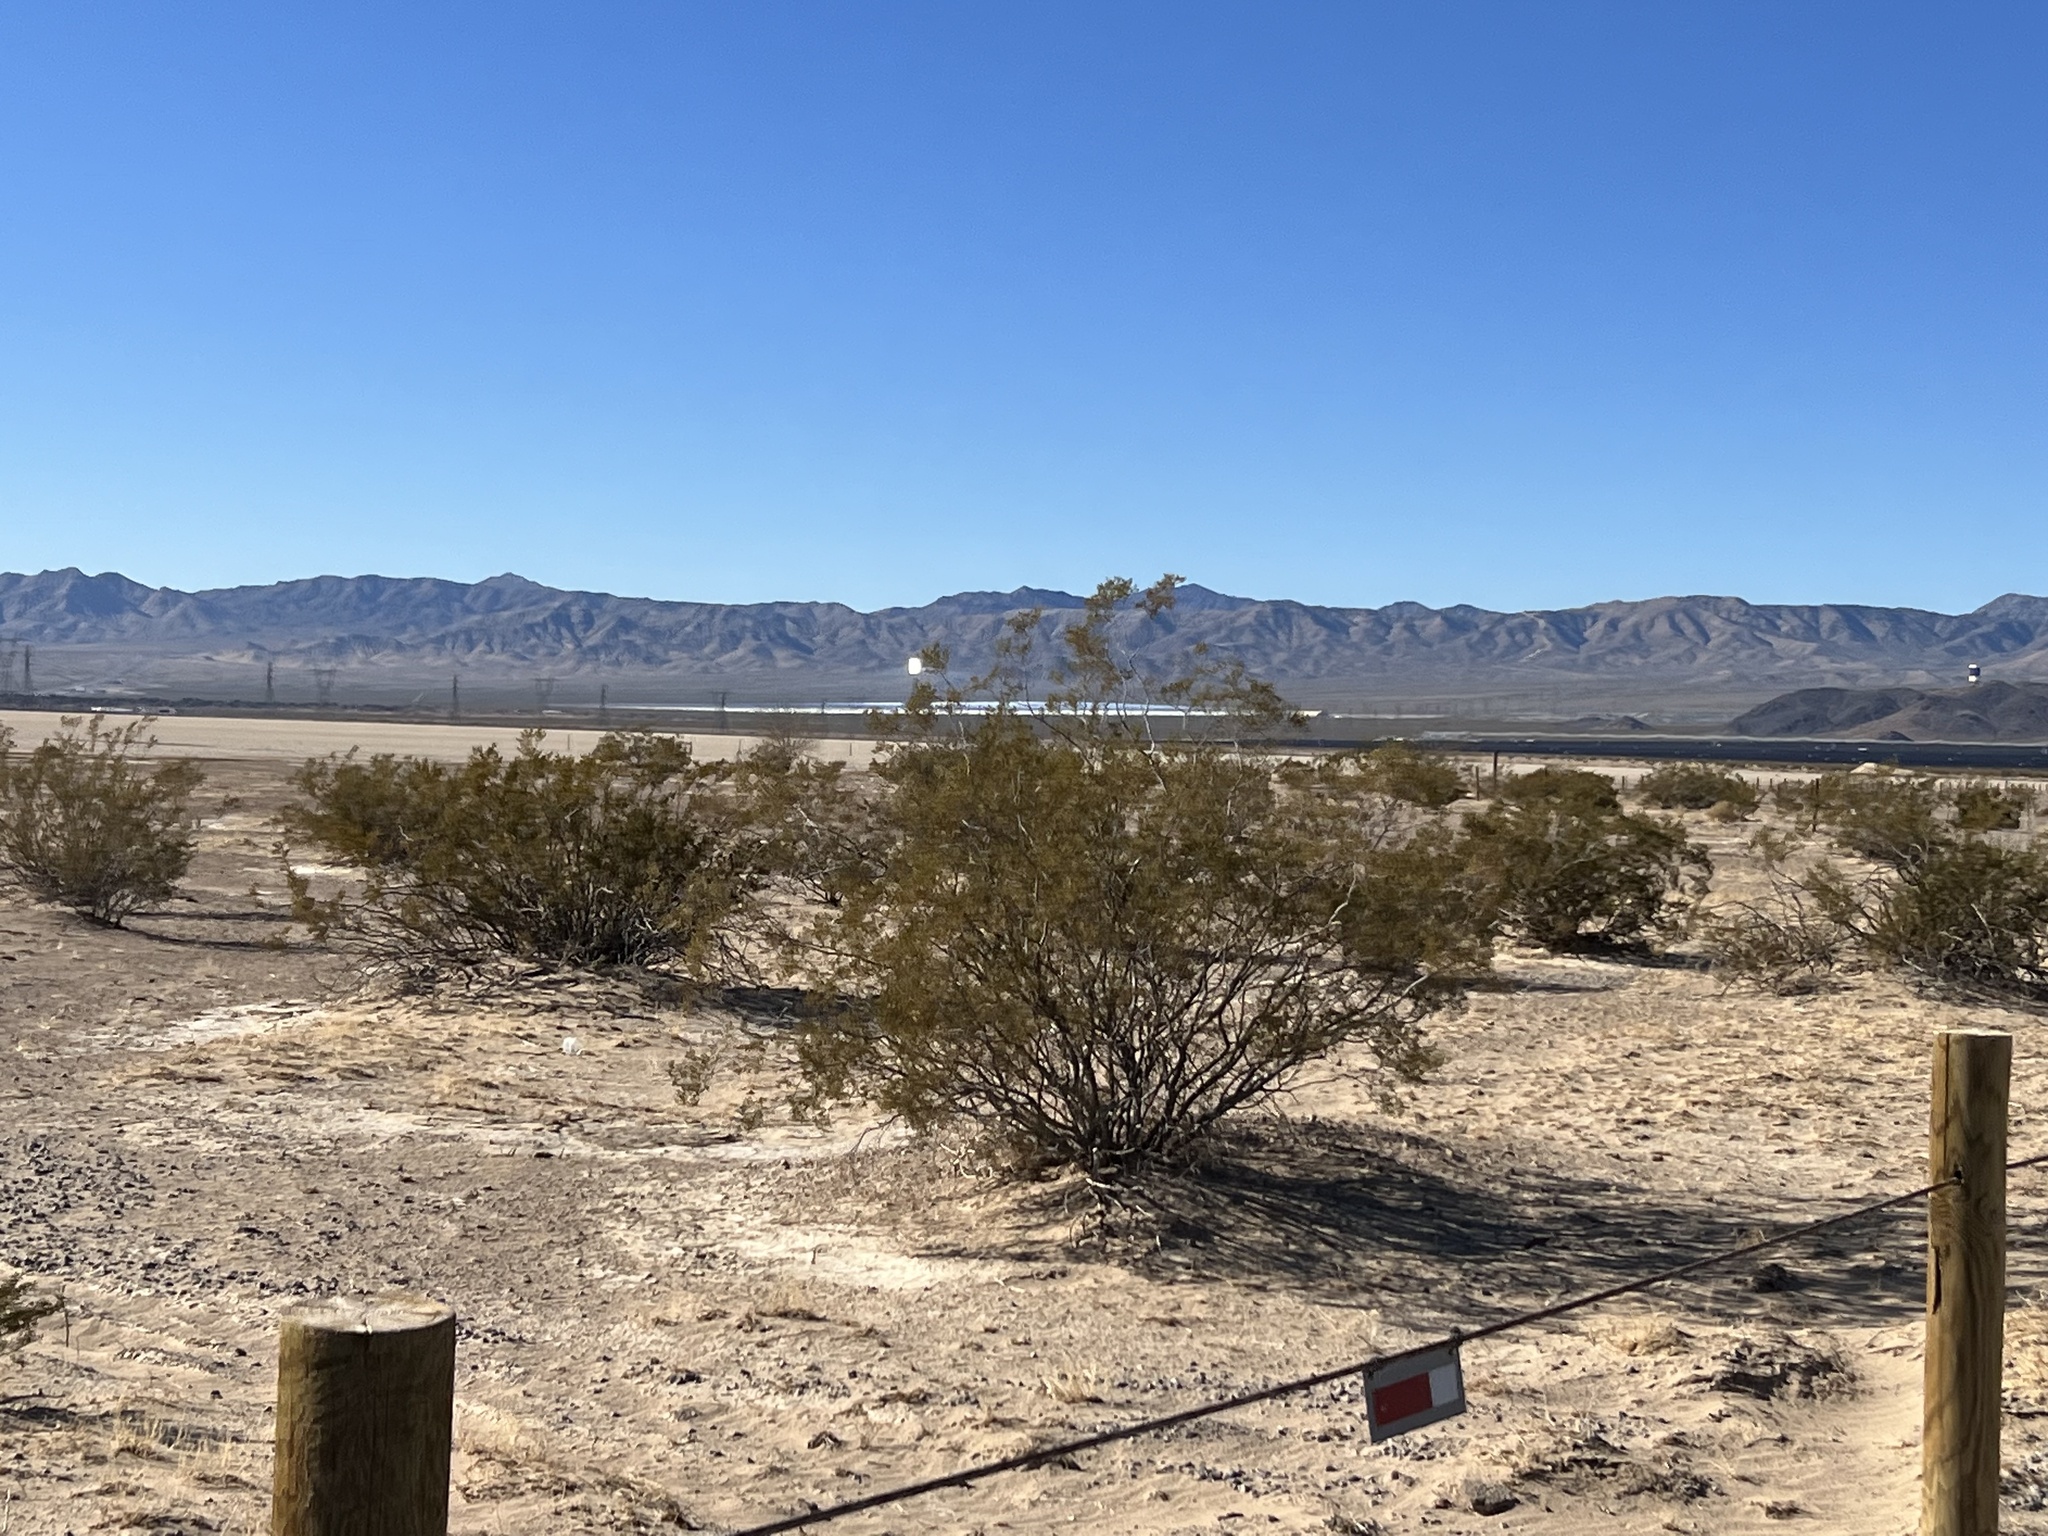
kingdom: Plantae
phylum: Tracheophyta
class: Magnoliopsida
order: Zygophyllales
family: Zygophyllaceae
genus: Larrea
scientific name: Larrea tridentata
